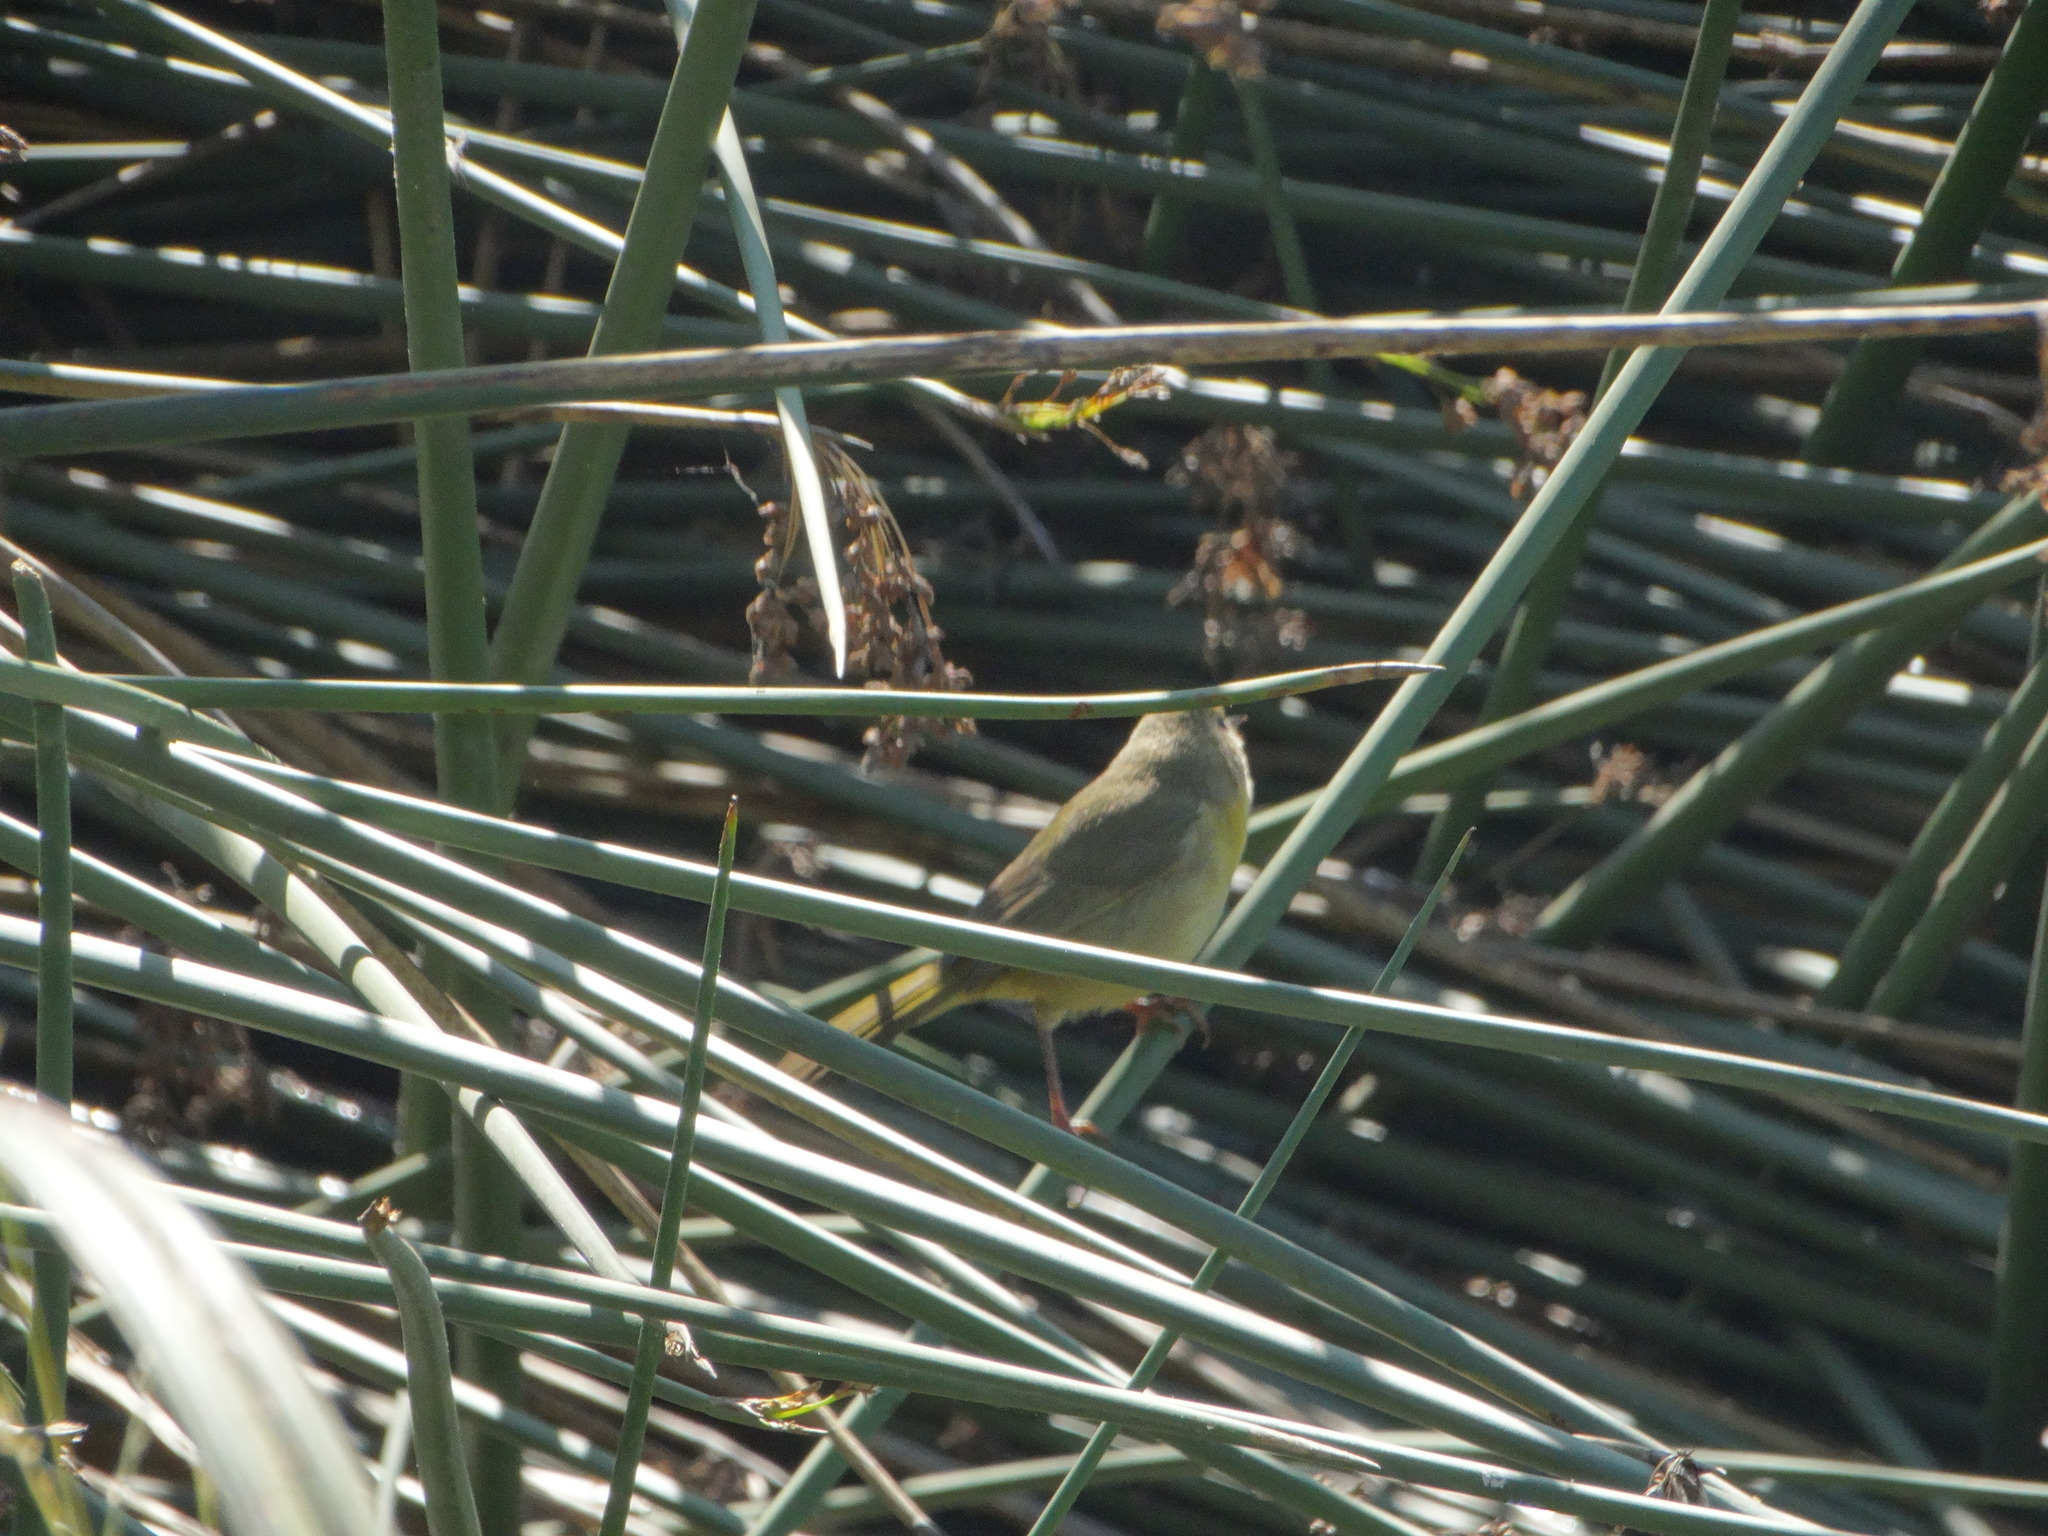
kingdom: Animalia
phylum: Chordata
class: Aves
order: Passeriformes
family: Parulidae
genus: Geothlypis
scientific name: Geothlypis trichas
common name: Common yellowthroat
